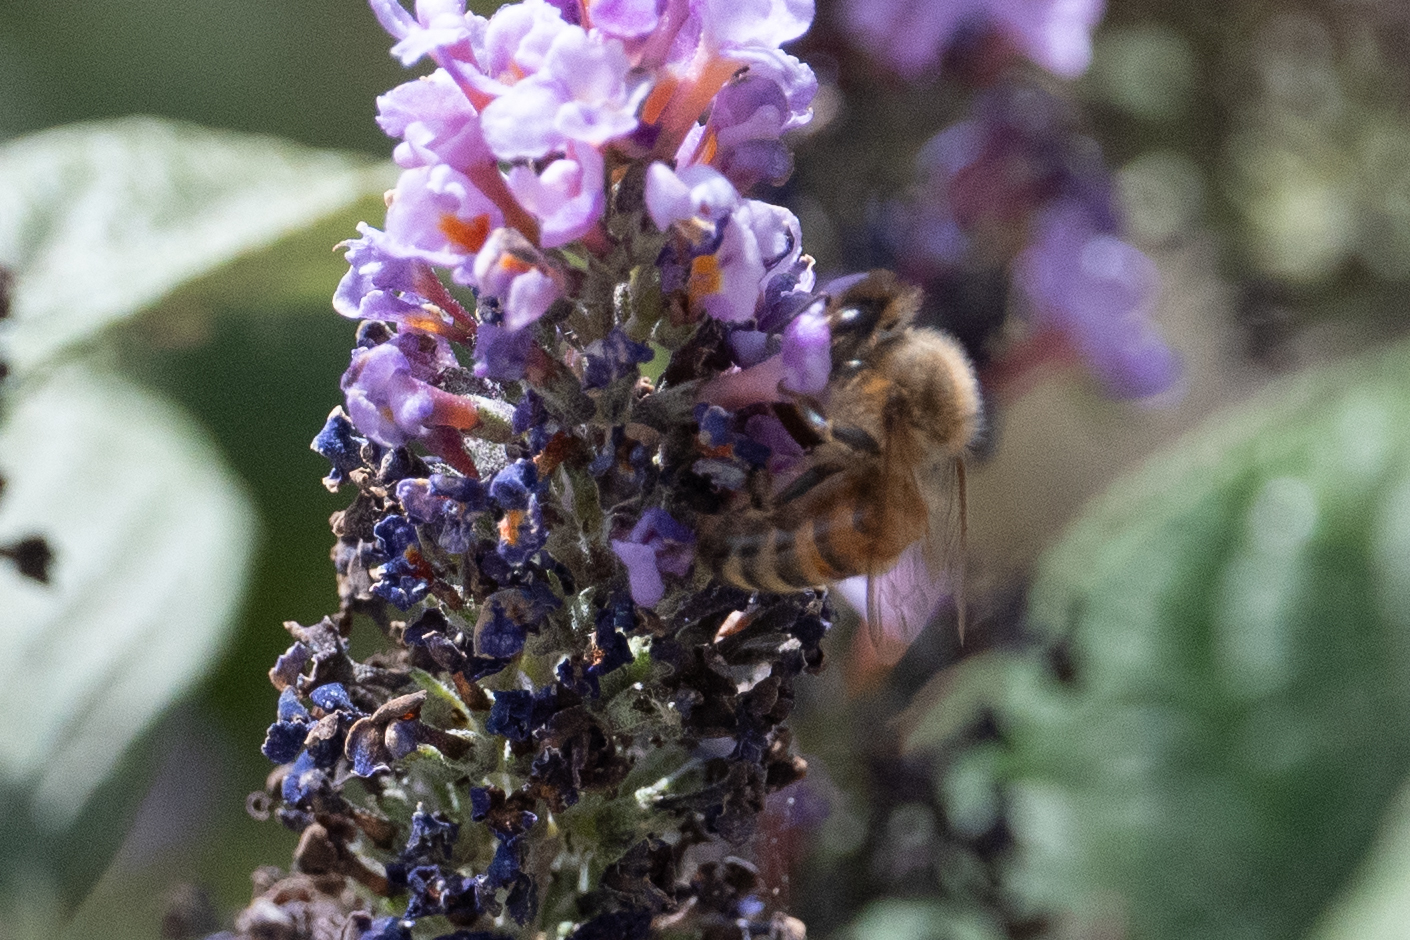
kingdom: Animalia
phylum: Arthropoda
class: Insecta
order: Hymenoptera
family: Apidae
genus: Apis
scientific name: Apis mellifera
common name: Honey bee
